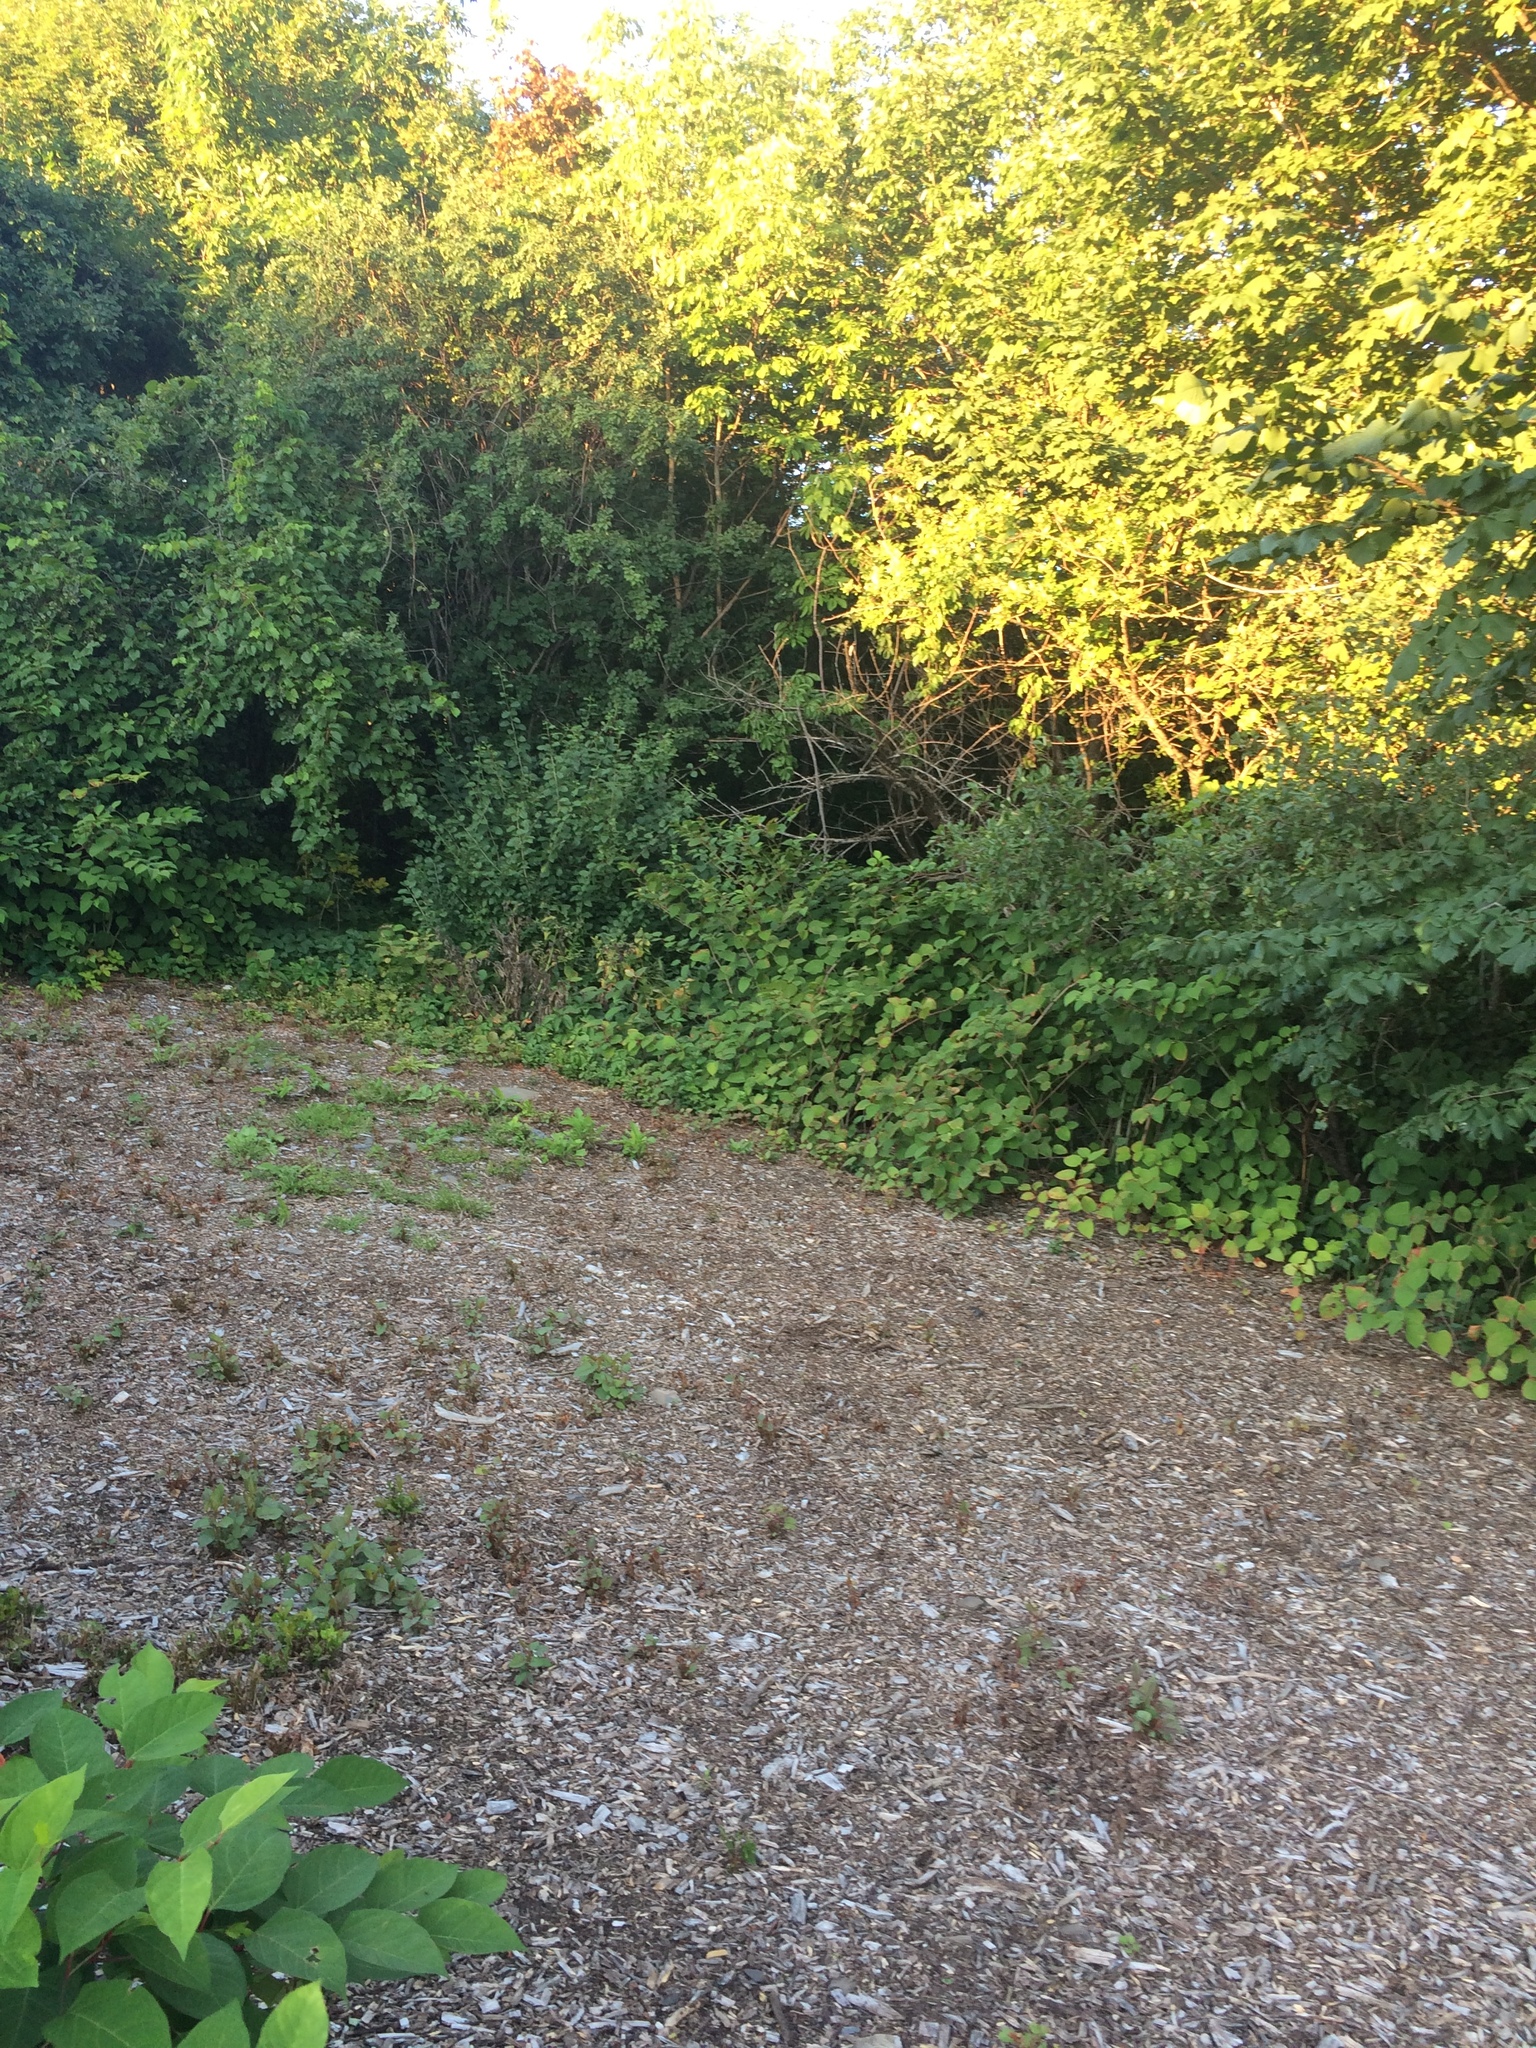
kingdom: Plantae
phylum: Tracheophyta
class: Magnoliopsida
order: Caryophyllales
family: Polygonaceae
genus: Reynoutria
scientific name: Reynoutria japonica
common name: Japanese knotweed
